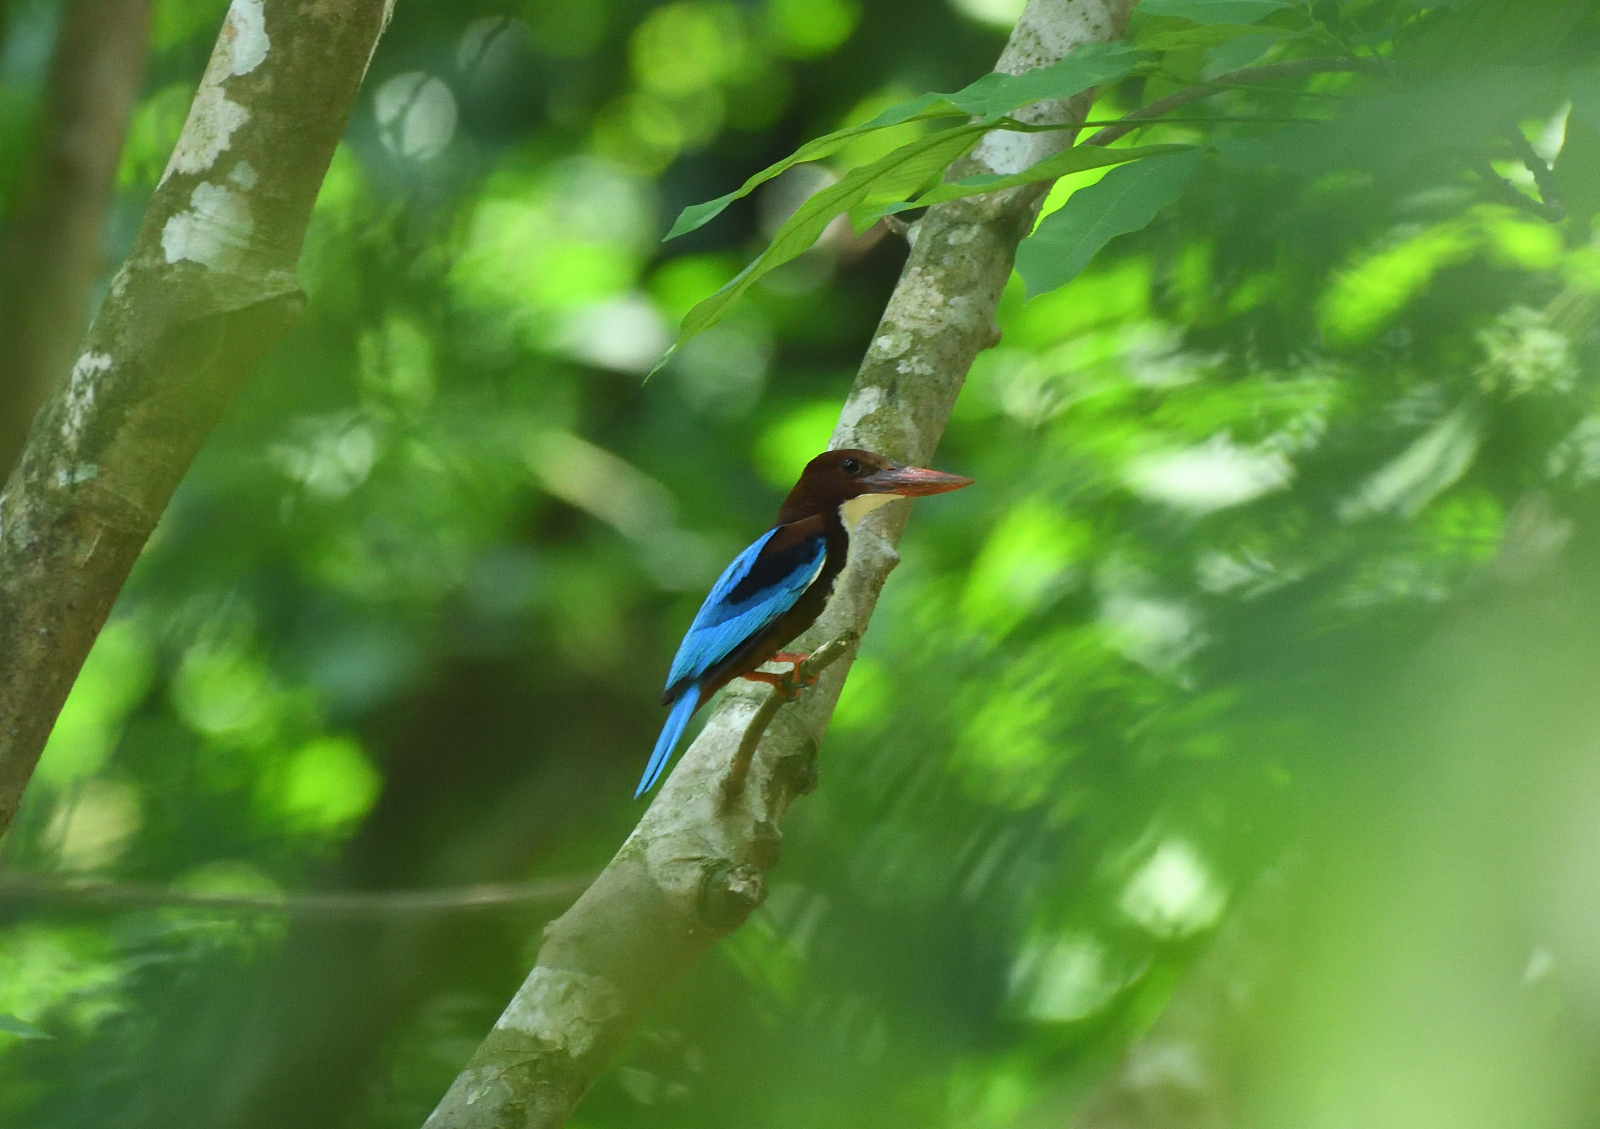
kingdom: Animalia
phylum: Chordata
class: Aves
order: Coraciiformes
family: Alcedinidae
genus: Halcyon
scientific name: Halcyon smyrnensis
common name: White-throated kingfisher
